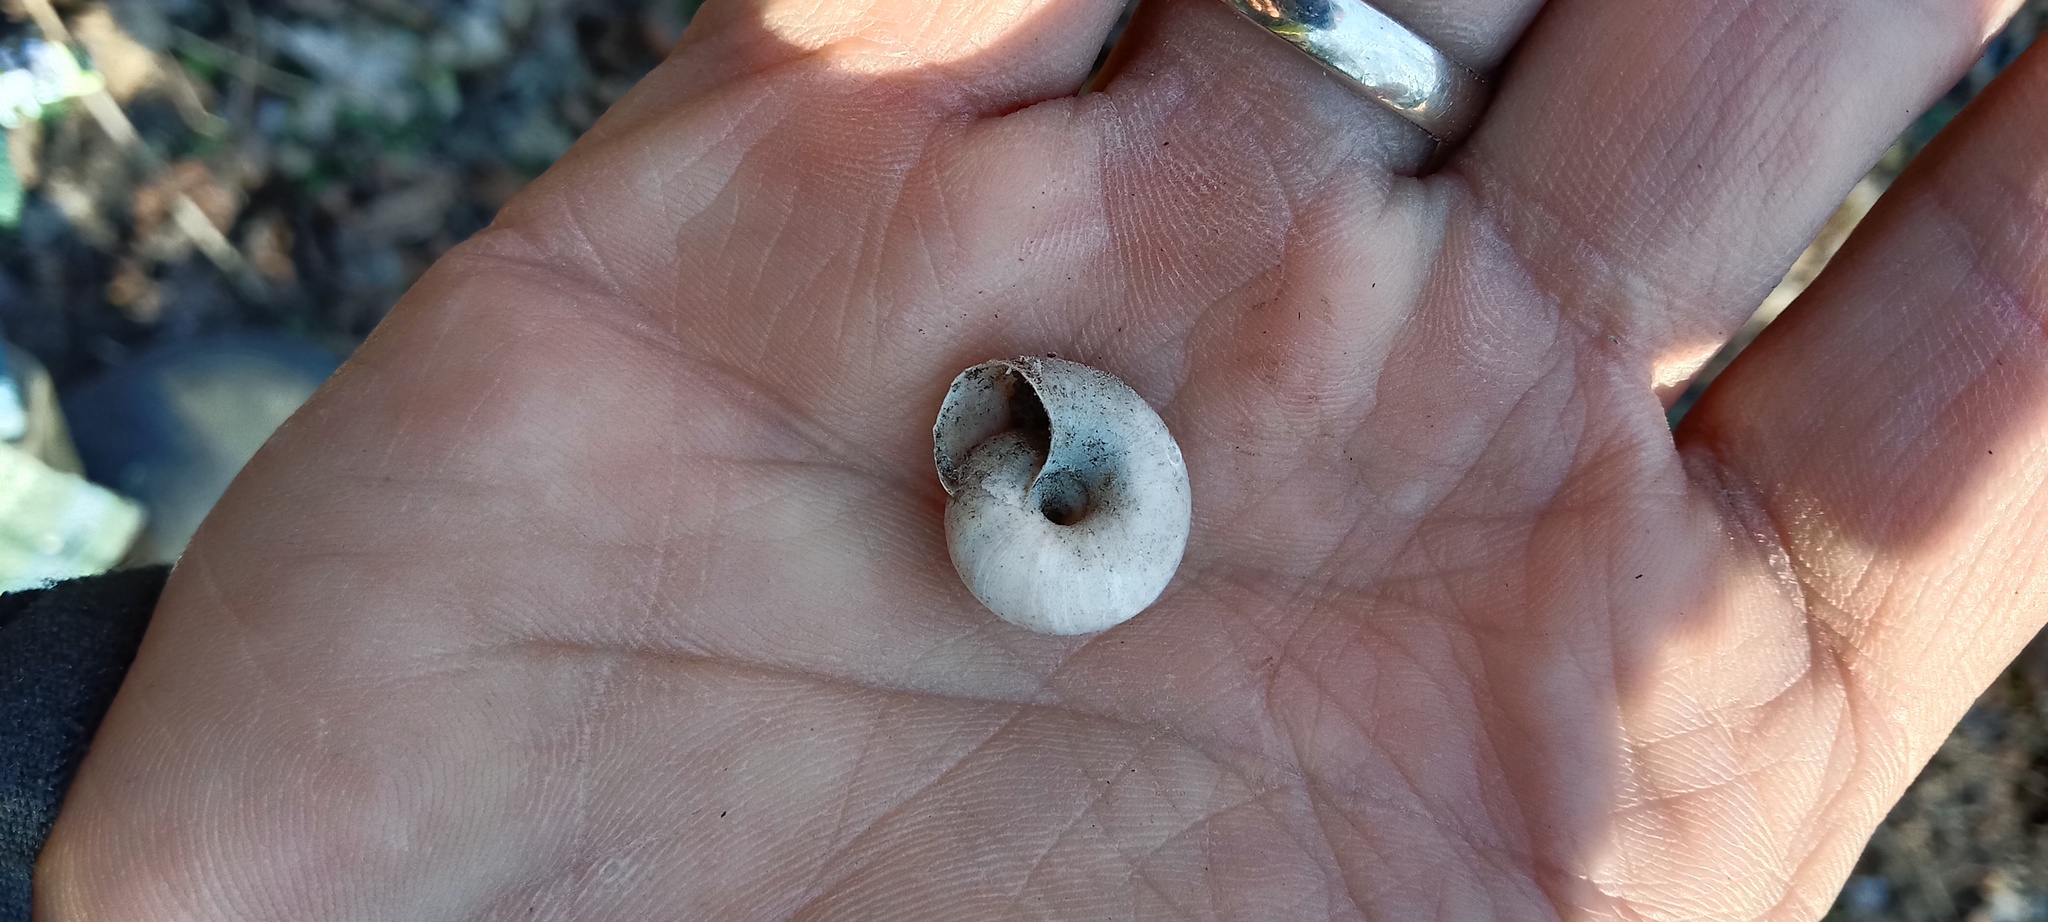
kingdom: Animalia
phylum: Mollusca
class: Gastropoda
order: Stylommatophora
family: Hygromiidae
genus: Euomphalia
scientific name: Euomphalia strigella
